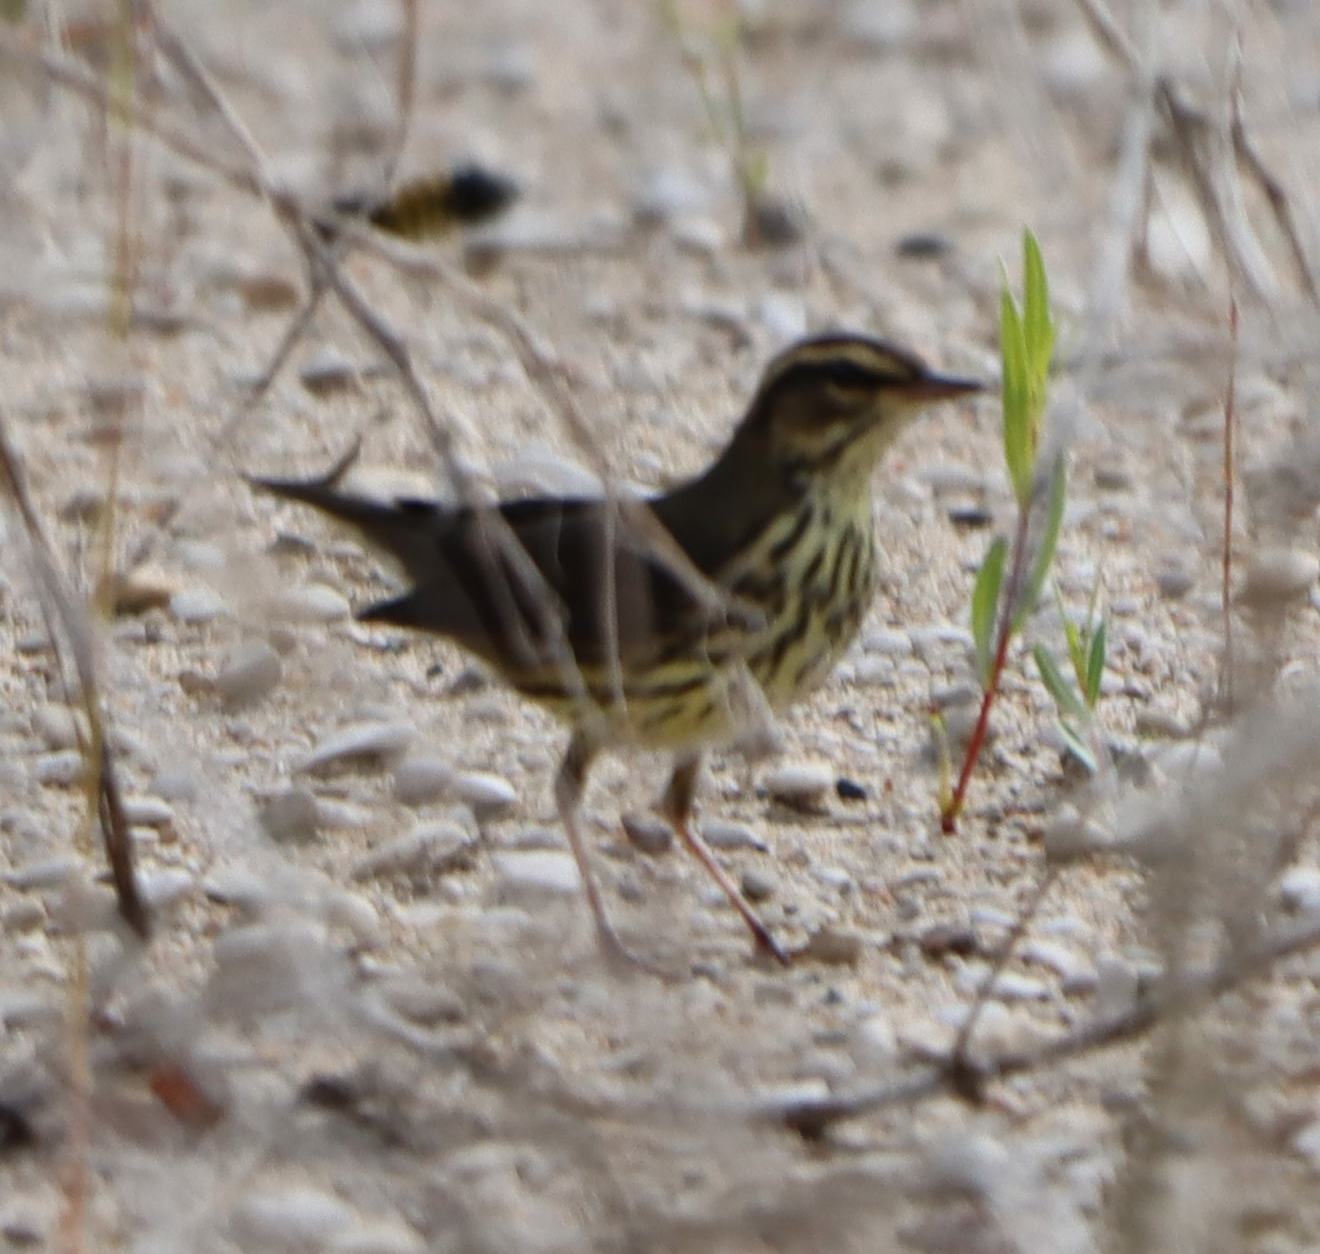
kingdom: Animalia
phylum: Chordata
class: Aves
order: Passeriformes
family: Parulidae
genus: Parkesia
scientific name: Parkesia noveboracensis
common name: Northern waterthrush
